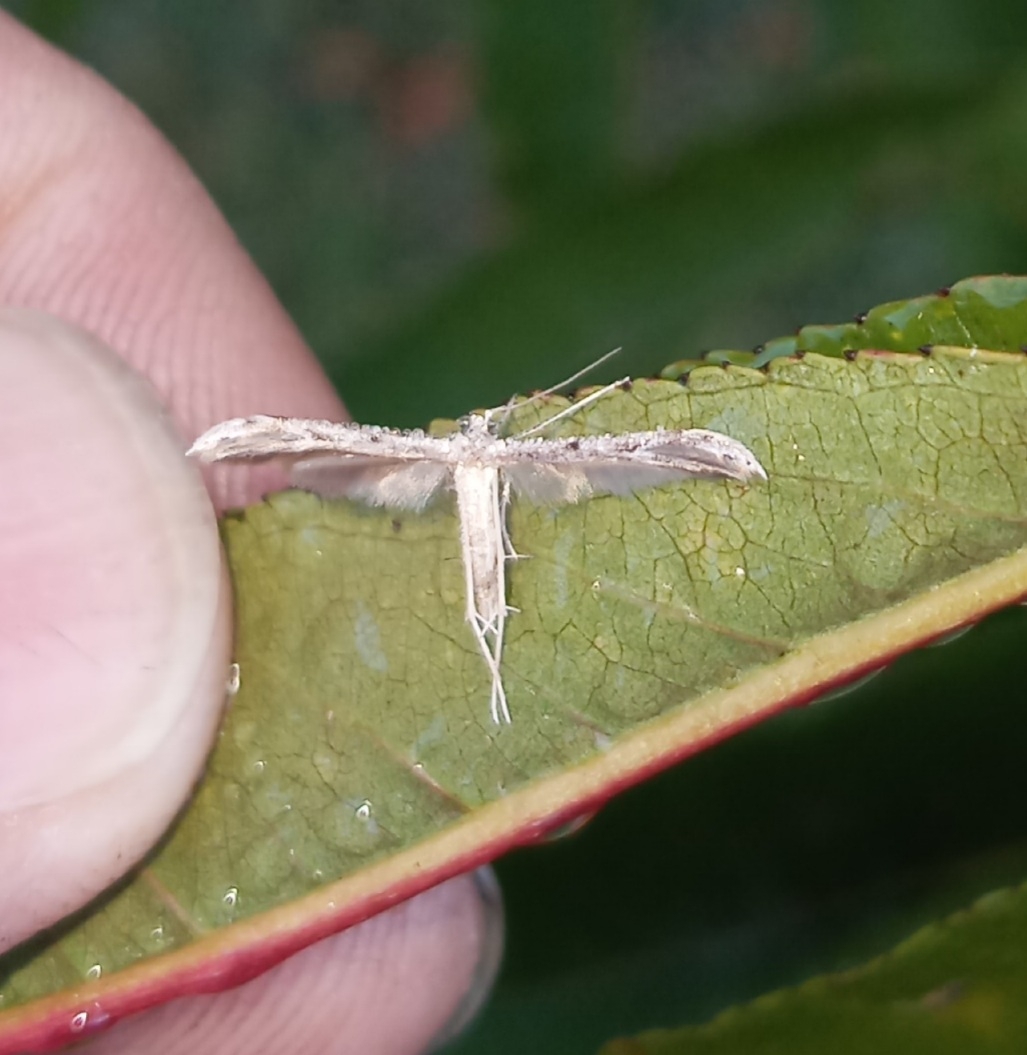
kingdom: Animalia
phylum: Arthropoda
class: Insecta
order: Lepidoptera
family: Pterophoridae
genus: Pselnophorus
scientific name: Pselnophorus belfragei
